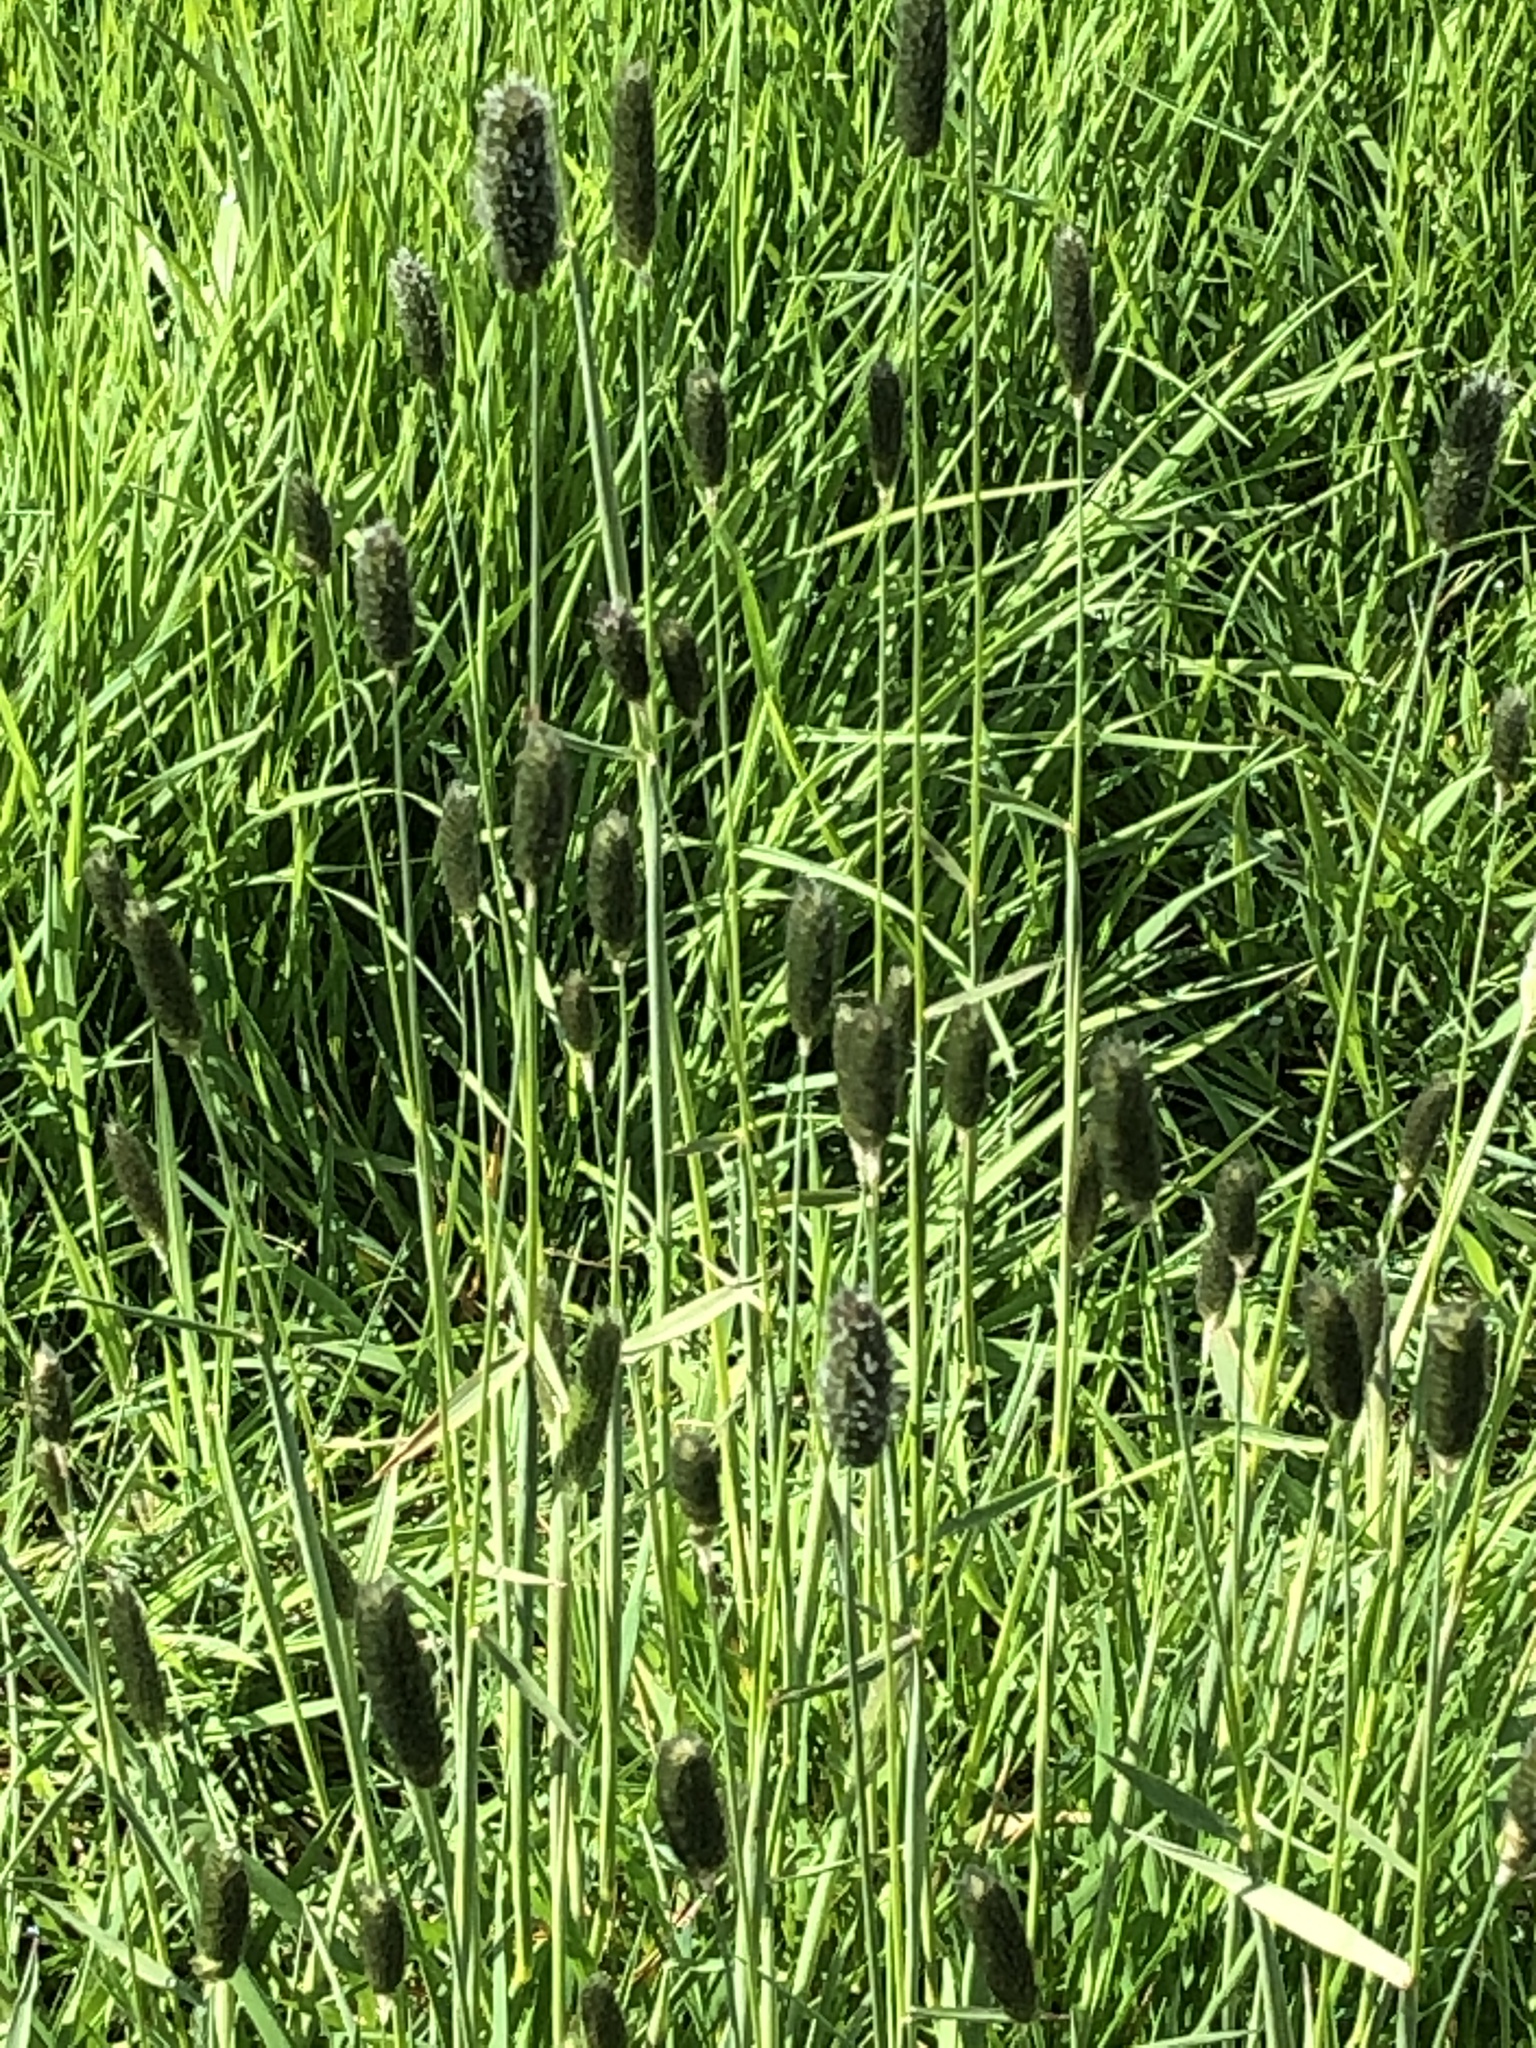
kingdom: Plantae
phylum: Tracheophyta
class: Liliopsida
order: Poales
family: Poaceae
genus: Alopecurus
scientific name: Alopecurus pratensis
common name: Meadow foxtail
